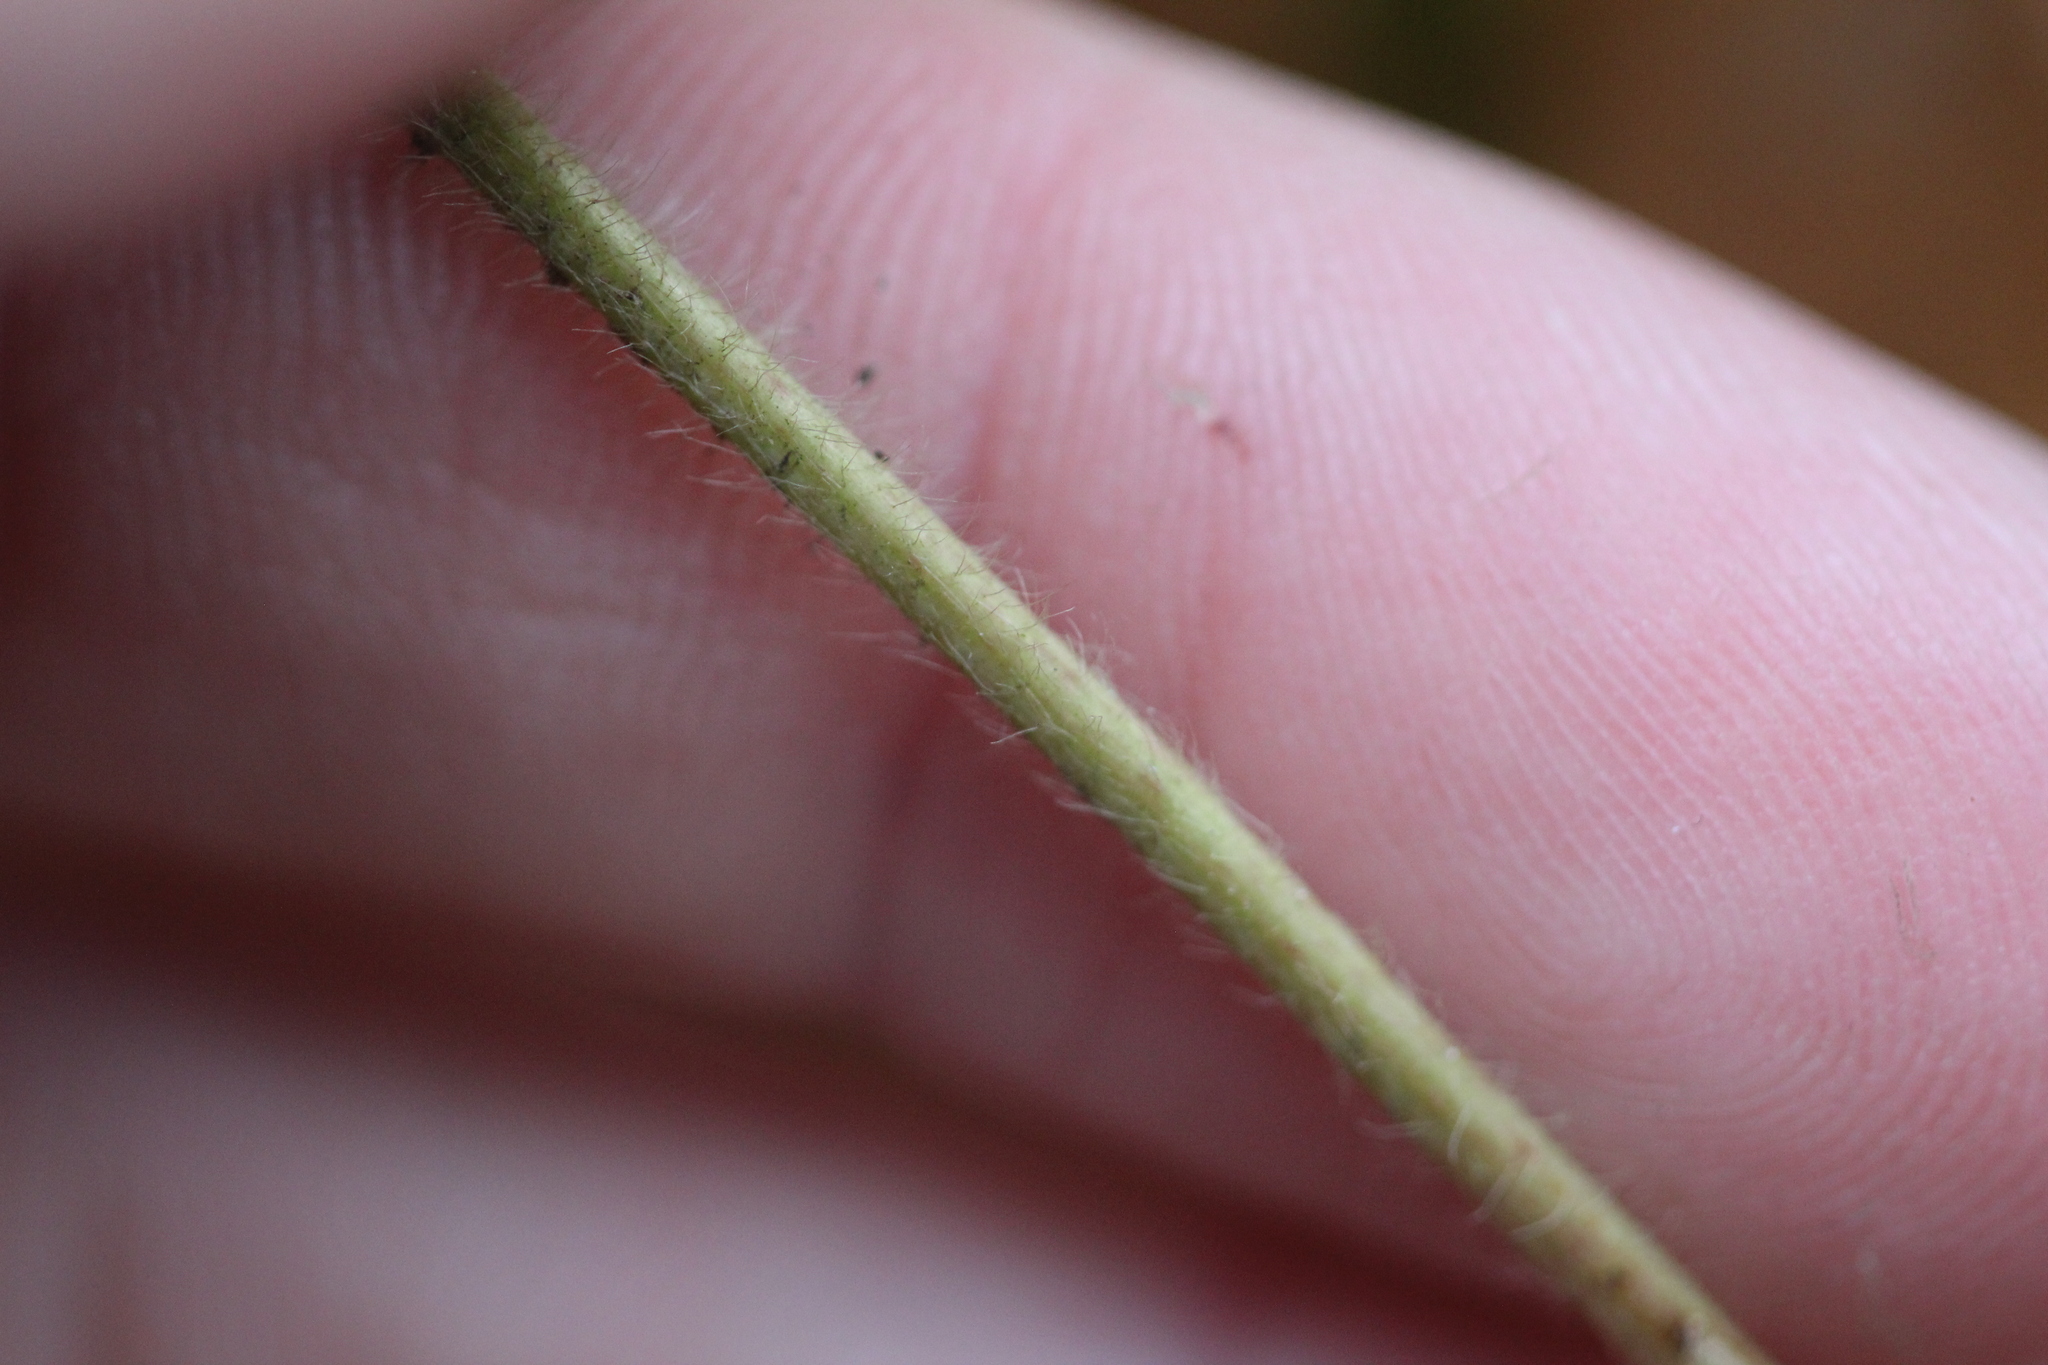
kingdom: Plantae
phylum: Tracheophyta
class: Magnoliopsida
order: Rosales
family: Rosaceae
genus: Fragaria
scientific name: Fragaria virginiana
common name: Thickleaved wild strawberry
